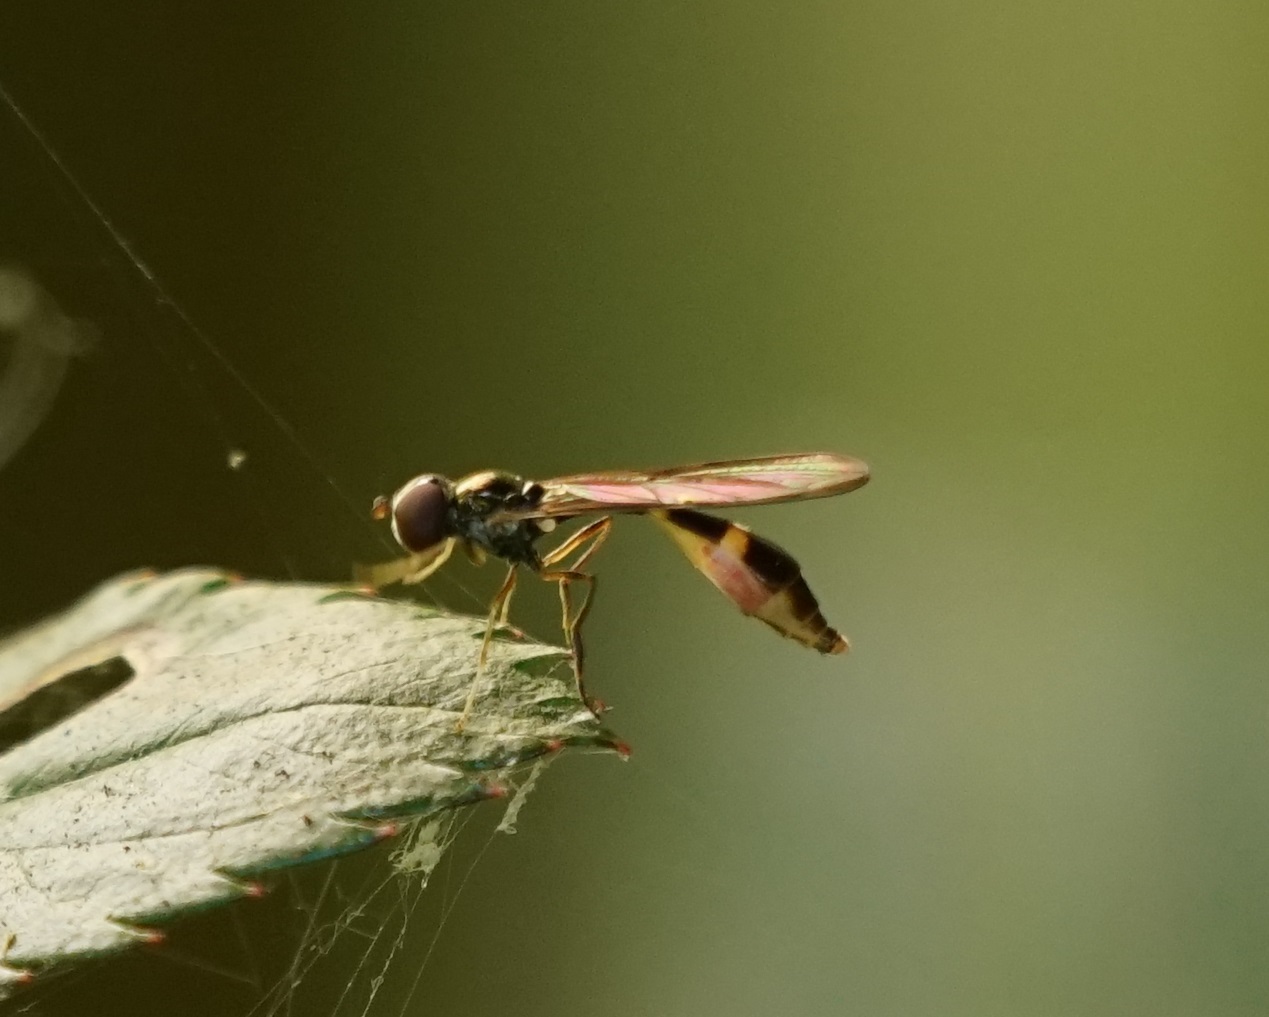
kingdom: Animalia
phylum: Arthropoda
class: Insecta
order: Diptera
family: Syrphidae
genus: Baccha
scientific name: Baccha elongata
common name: Common dainty
